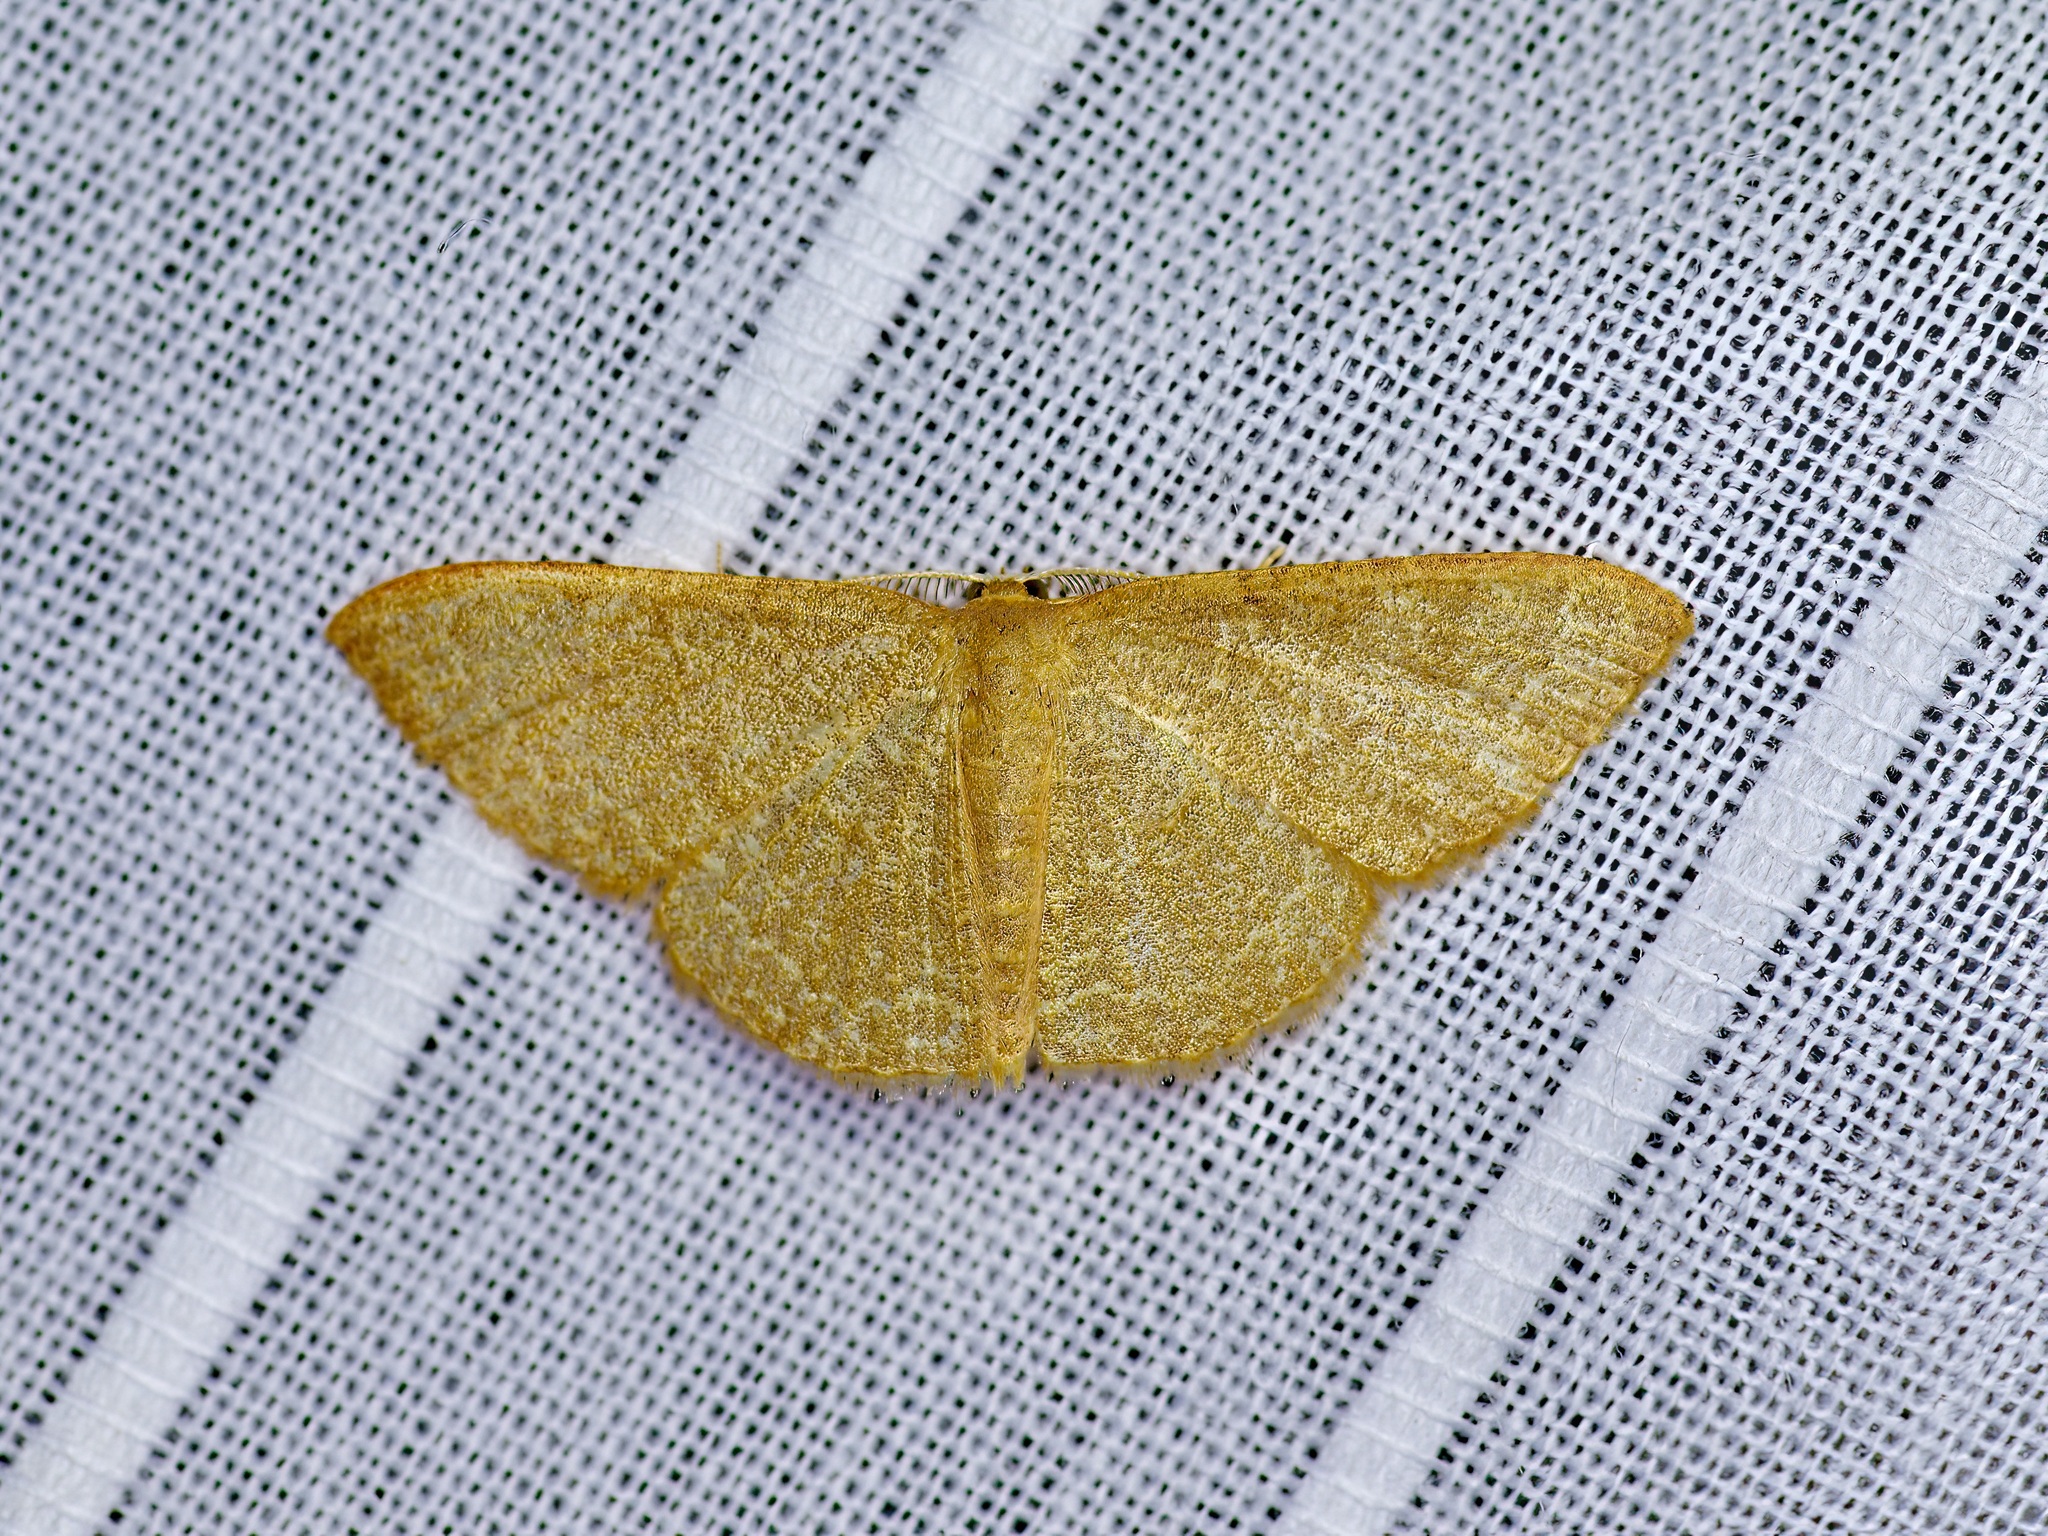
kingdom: Animalia
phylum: Arthropoda
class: Insecta
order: Lepidoptera
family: Geometridae
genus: Pleuroprucha
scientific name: Pleuroprucha insulsaria
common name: Common tan wave
